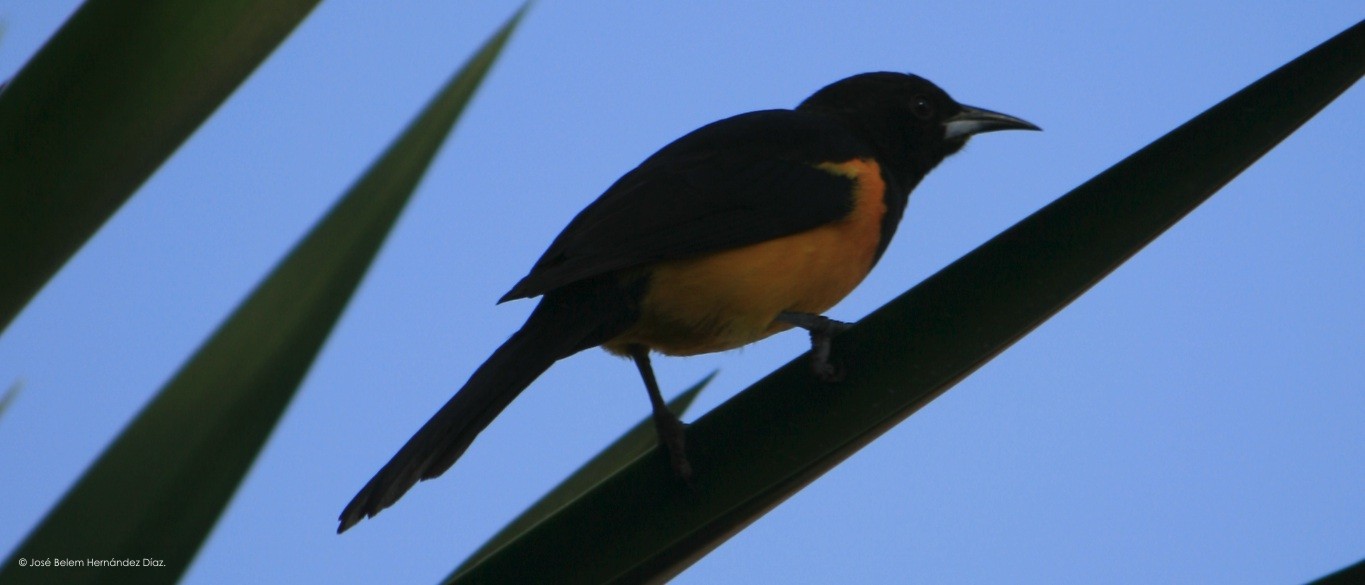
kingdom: Animalia
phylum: Chordata
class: Aves
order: Passeriformes
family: Icteridae
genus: Icterus
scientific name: Icterus wagleri
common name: Black-vented oriole
